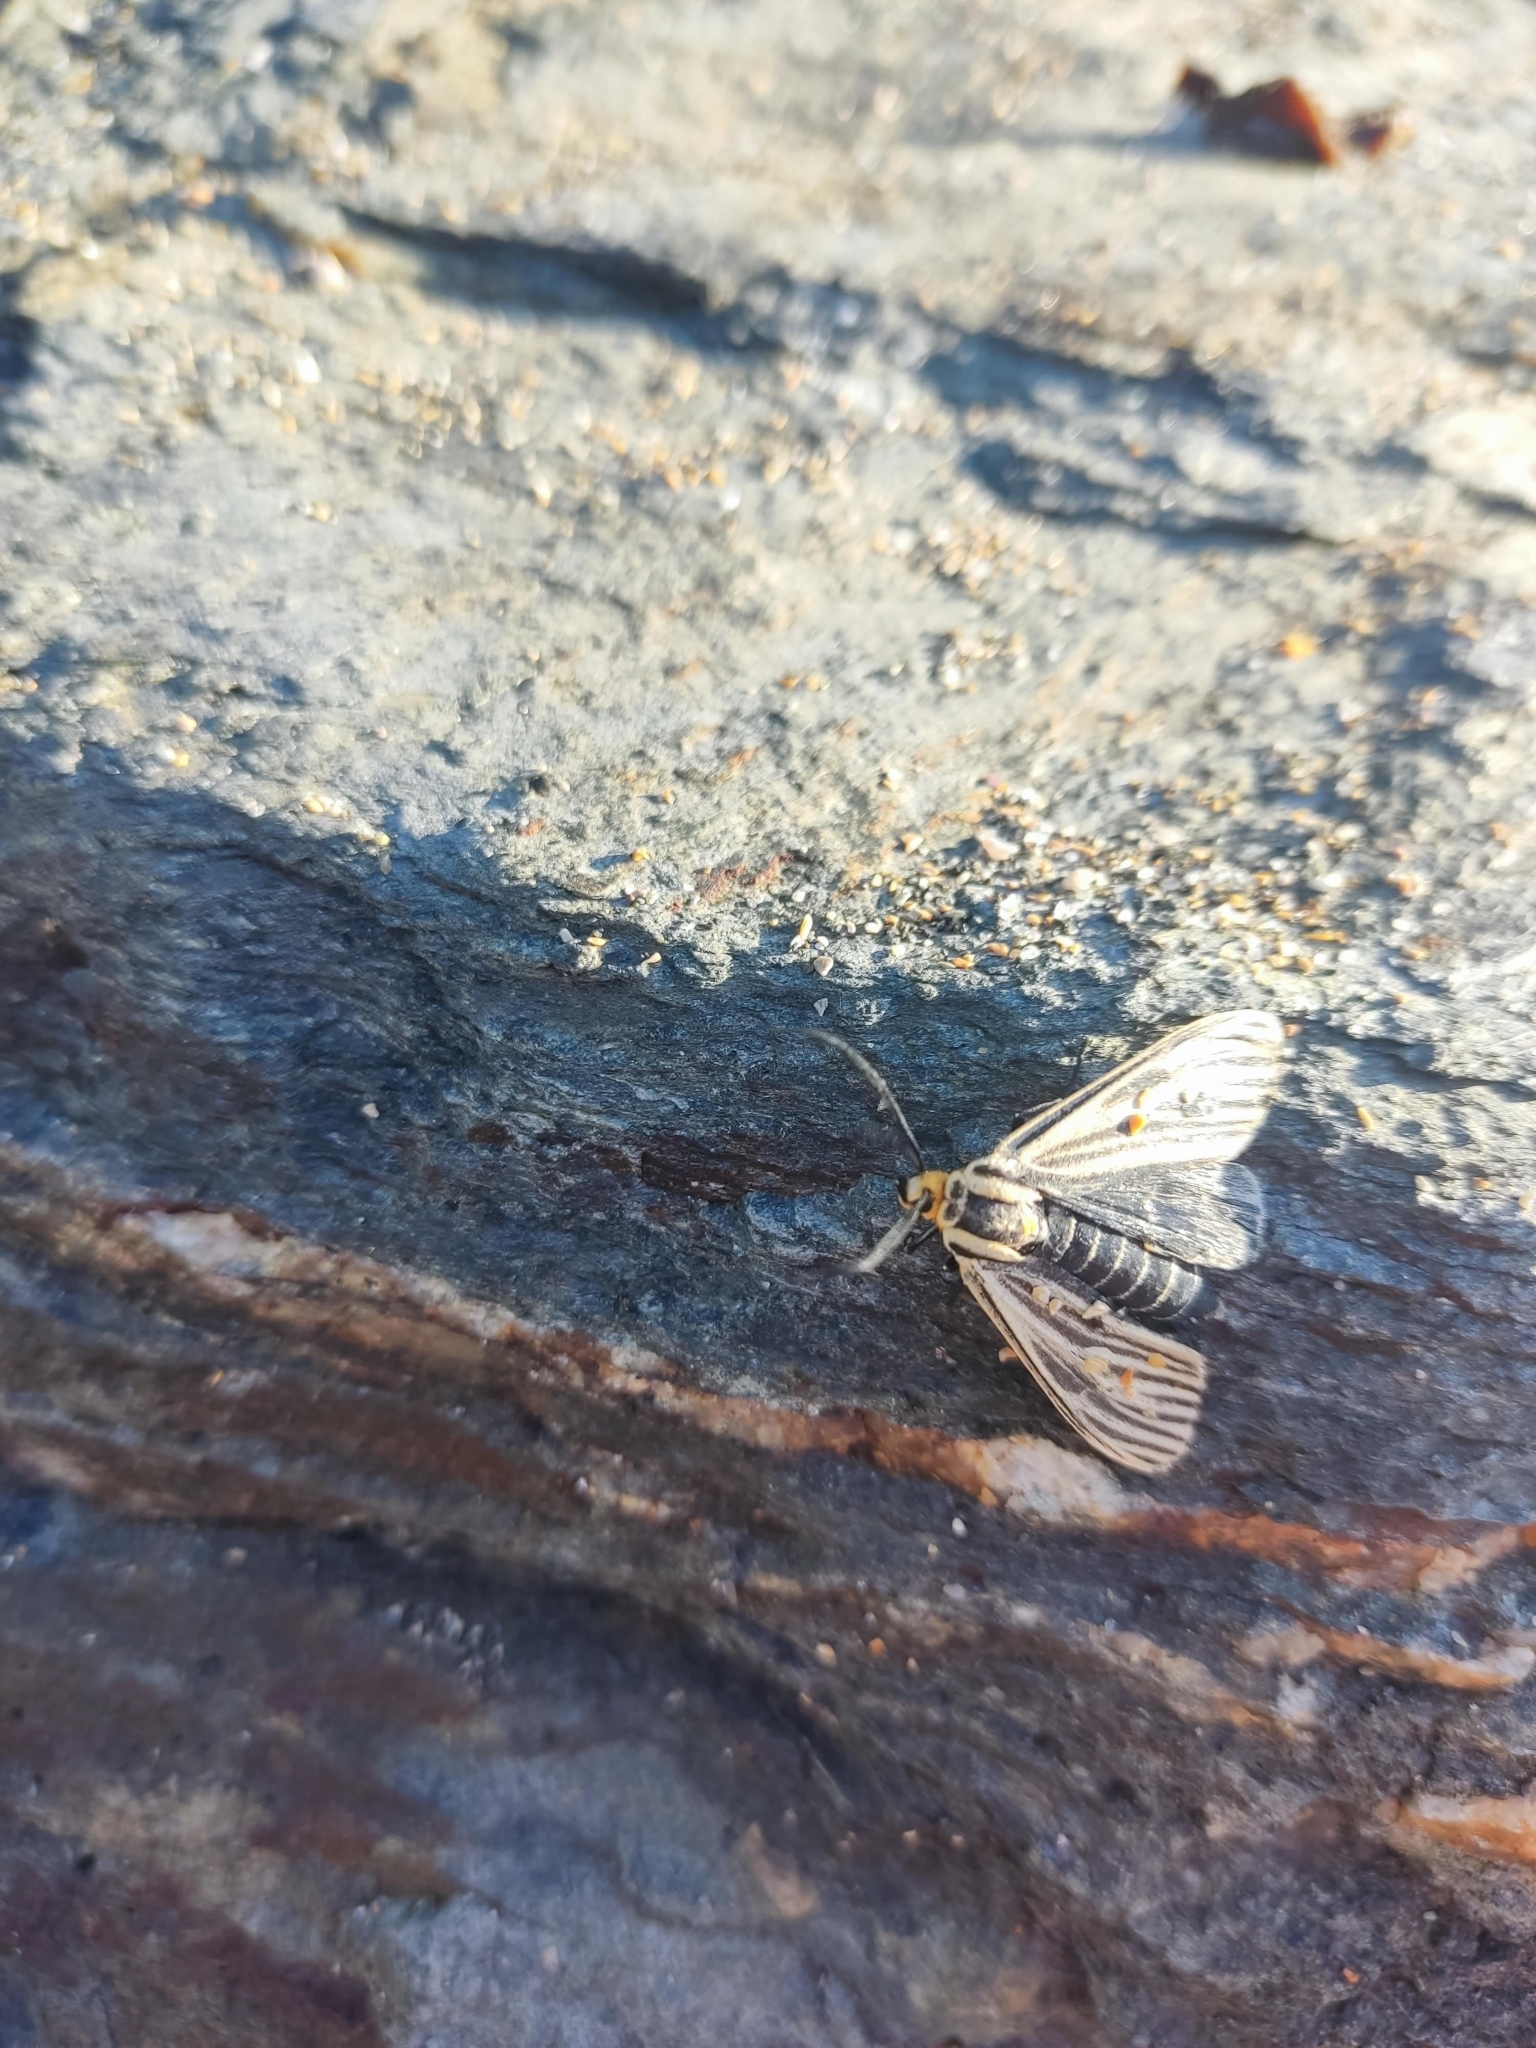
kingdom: Animalia
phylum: Arthropoda
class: Insecta
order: Lepidoptera
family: Erebidae
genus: Ctenucha
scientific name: Ctenucha vittigerum
